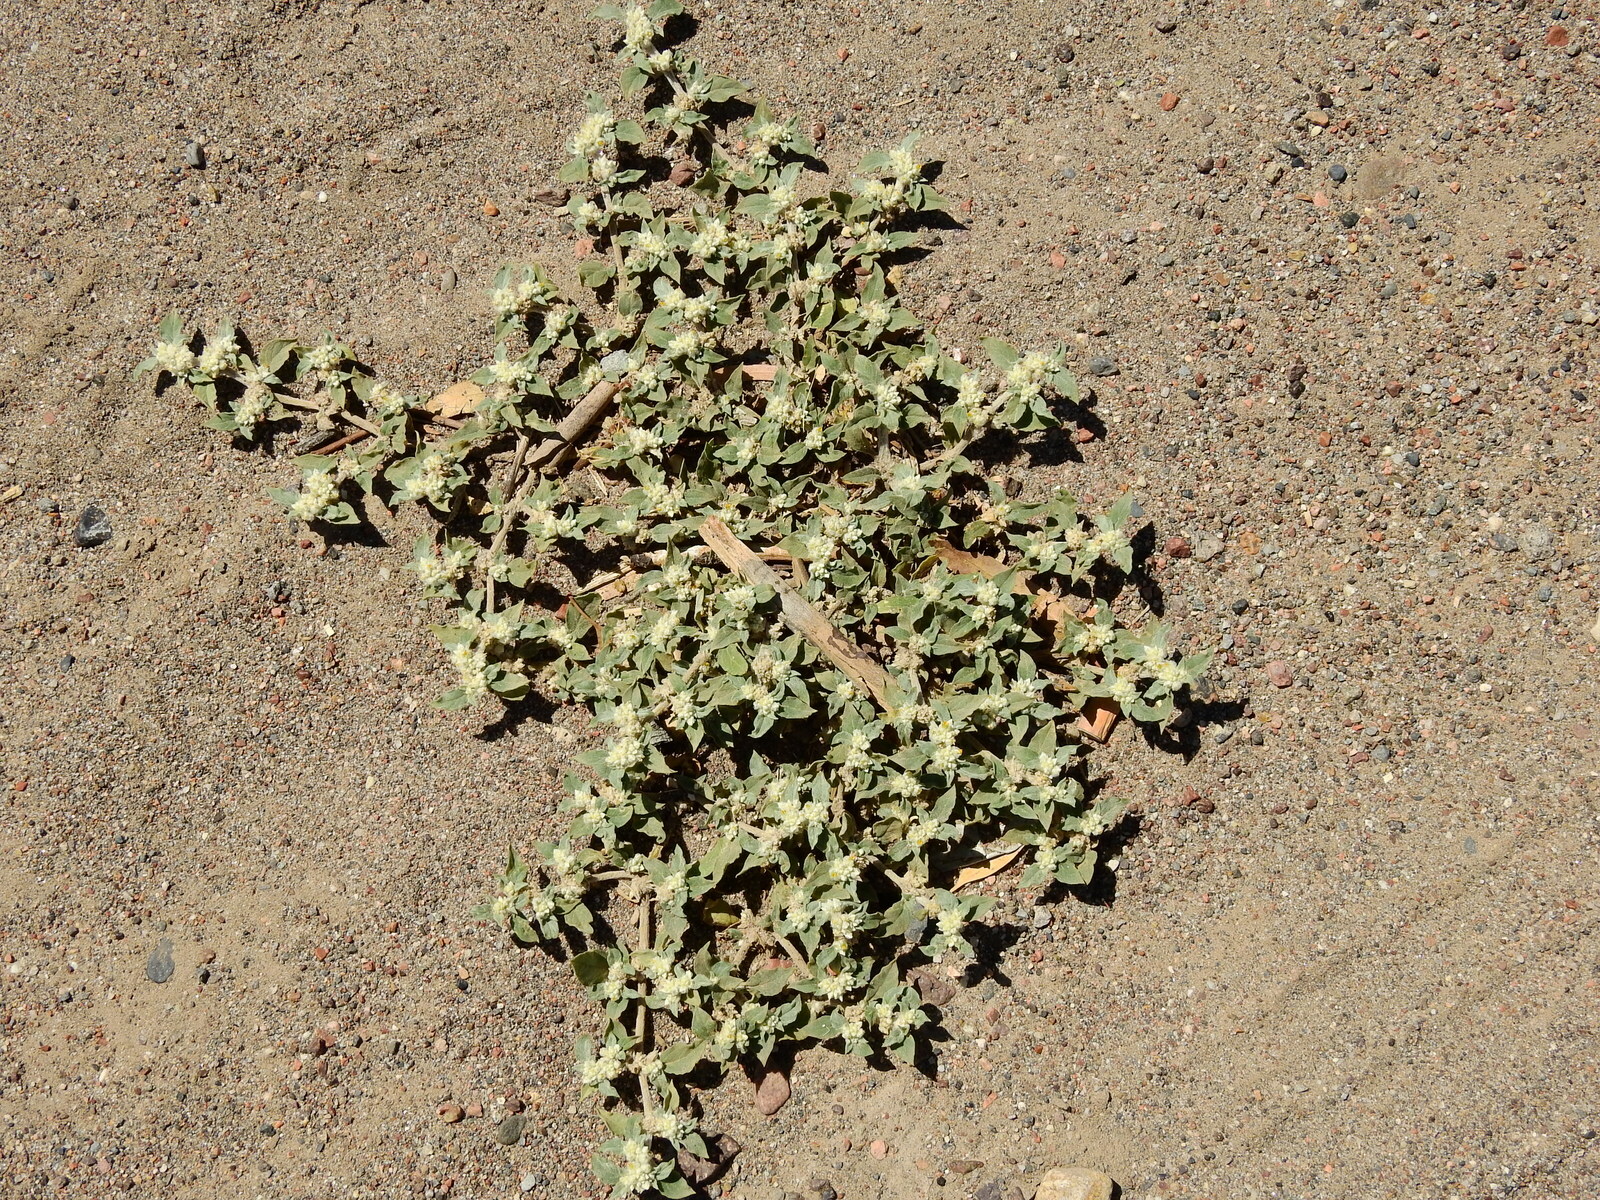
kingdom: Plantae
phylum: Tracheophyta
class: Magnoliopsida
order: Caryophyllales
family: Amaranthaceae
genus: Gomphrena
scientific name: Gomphrena mendocina
